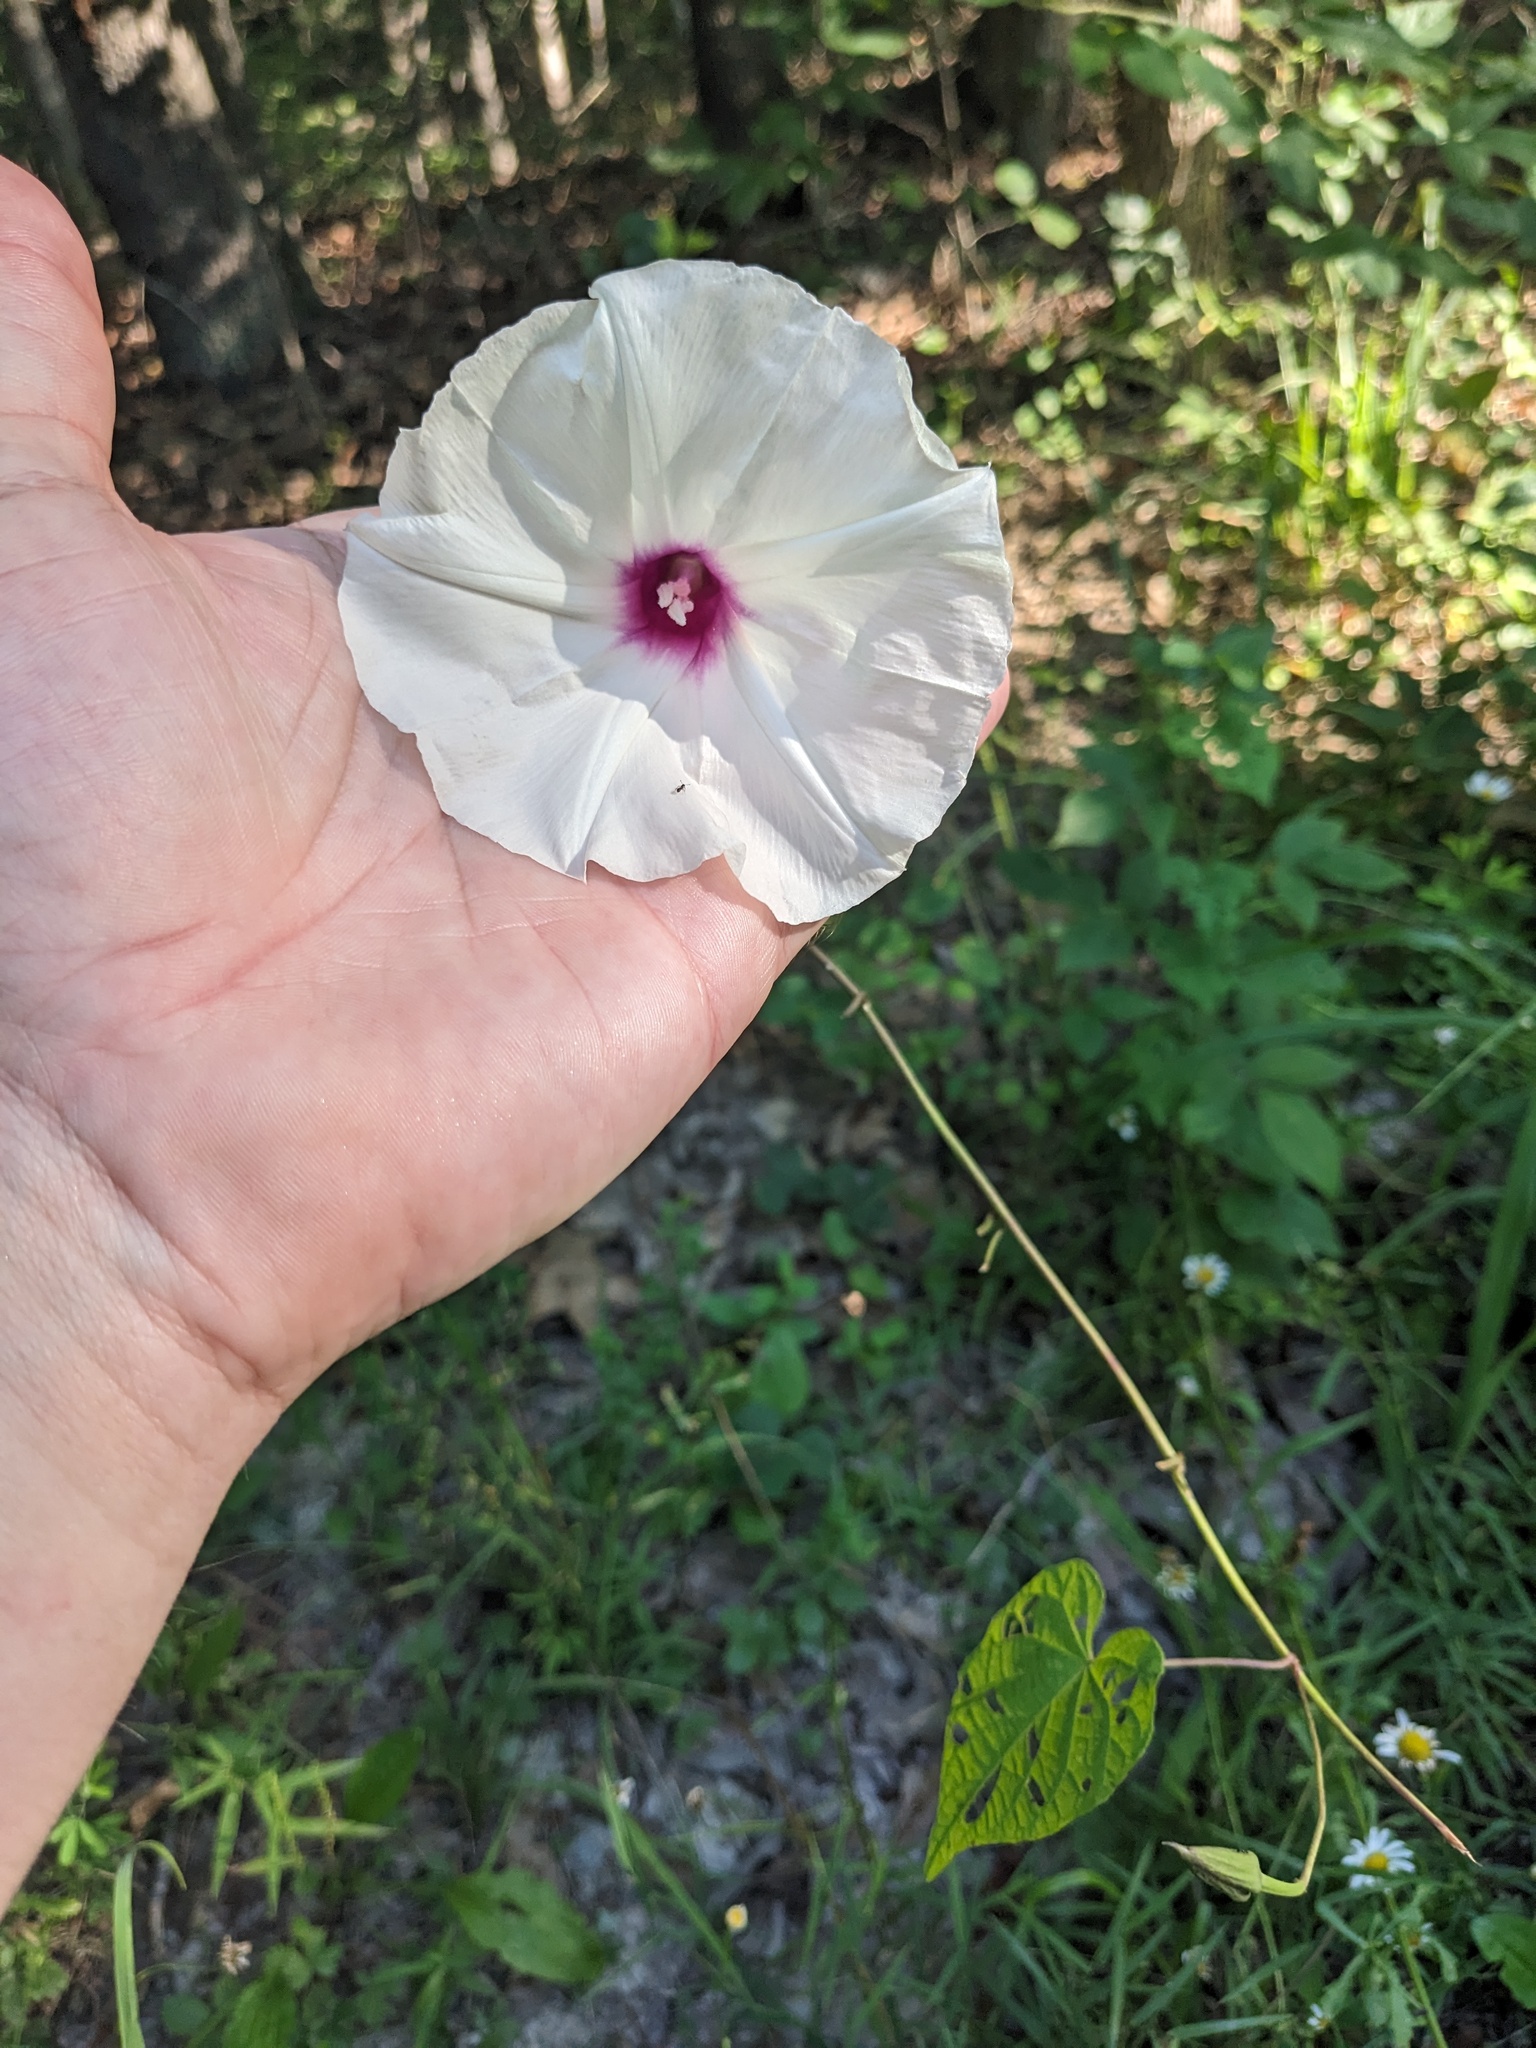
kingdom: Plantae
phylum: Tracheophyta
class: Magnoliopsida
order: Solanales
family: Convolvulaceae
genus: Ipomoea
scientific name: Ipomoea pandurata
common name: Man-of-the-earth
